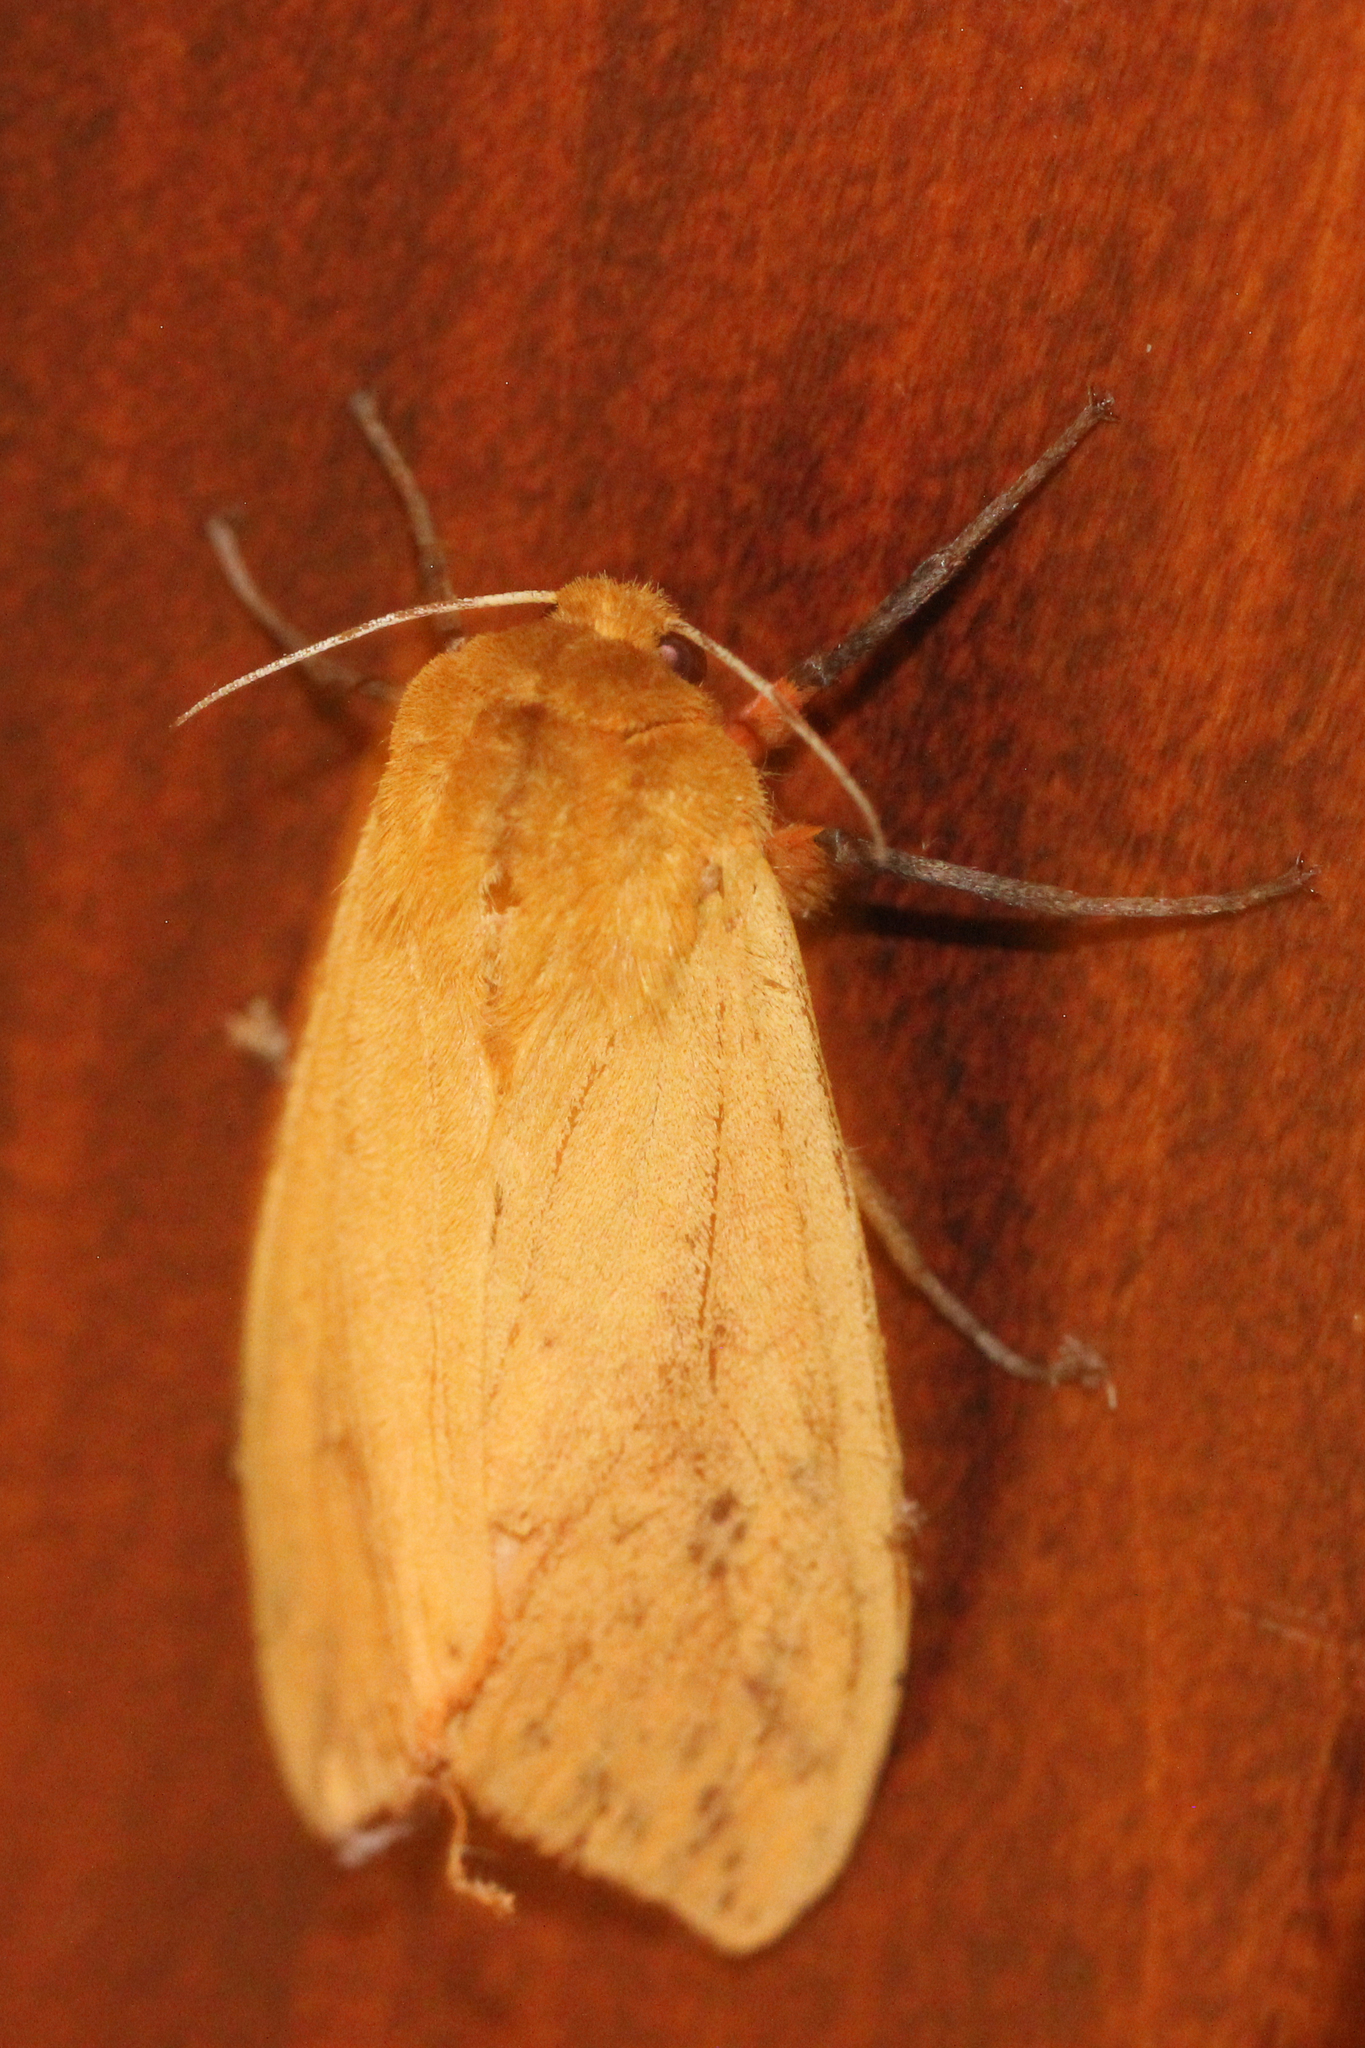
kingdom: Animalia
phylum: Arthropoda
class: Insecta
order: Lepidoptera
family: Erebidae
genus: Pyrrharctia
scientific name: Pyrrharctia isabella
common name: Isabella tiger moth
